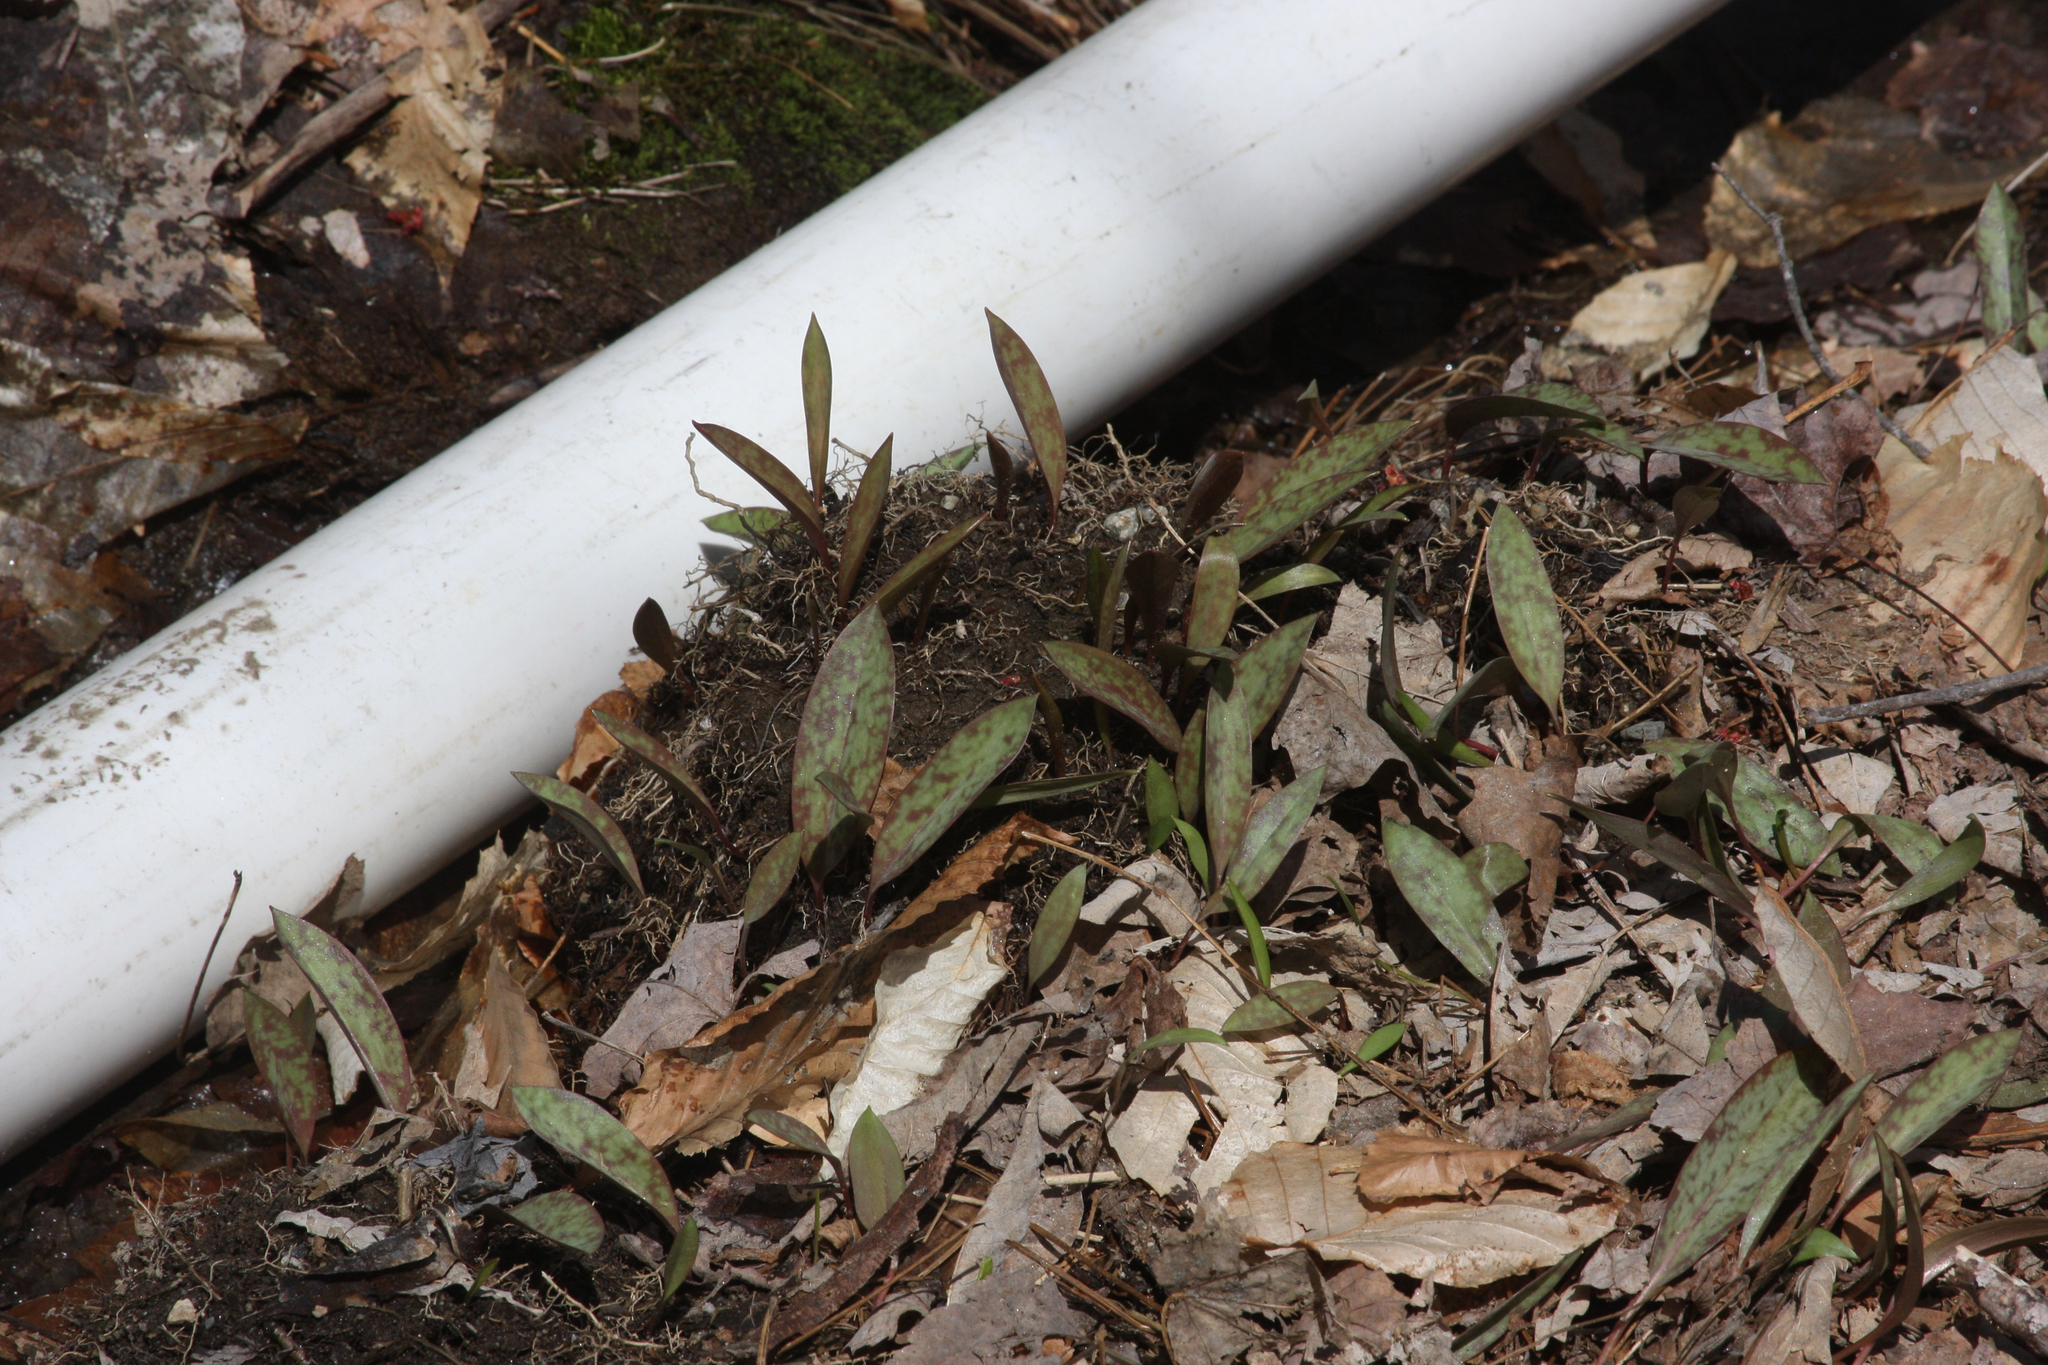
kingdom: Plantae
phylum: Tracheophyta
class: Liliopsida
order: Liliales
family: Liliaceae
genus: Erythronium
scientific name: Erythronium americanum
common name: Yellow adder's-tongue
